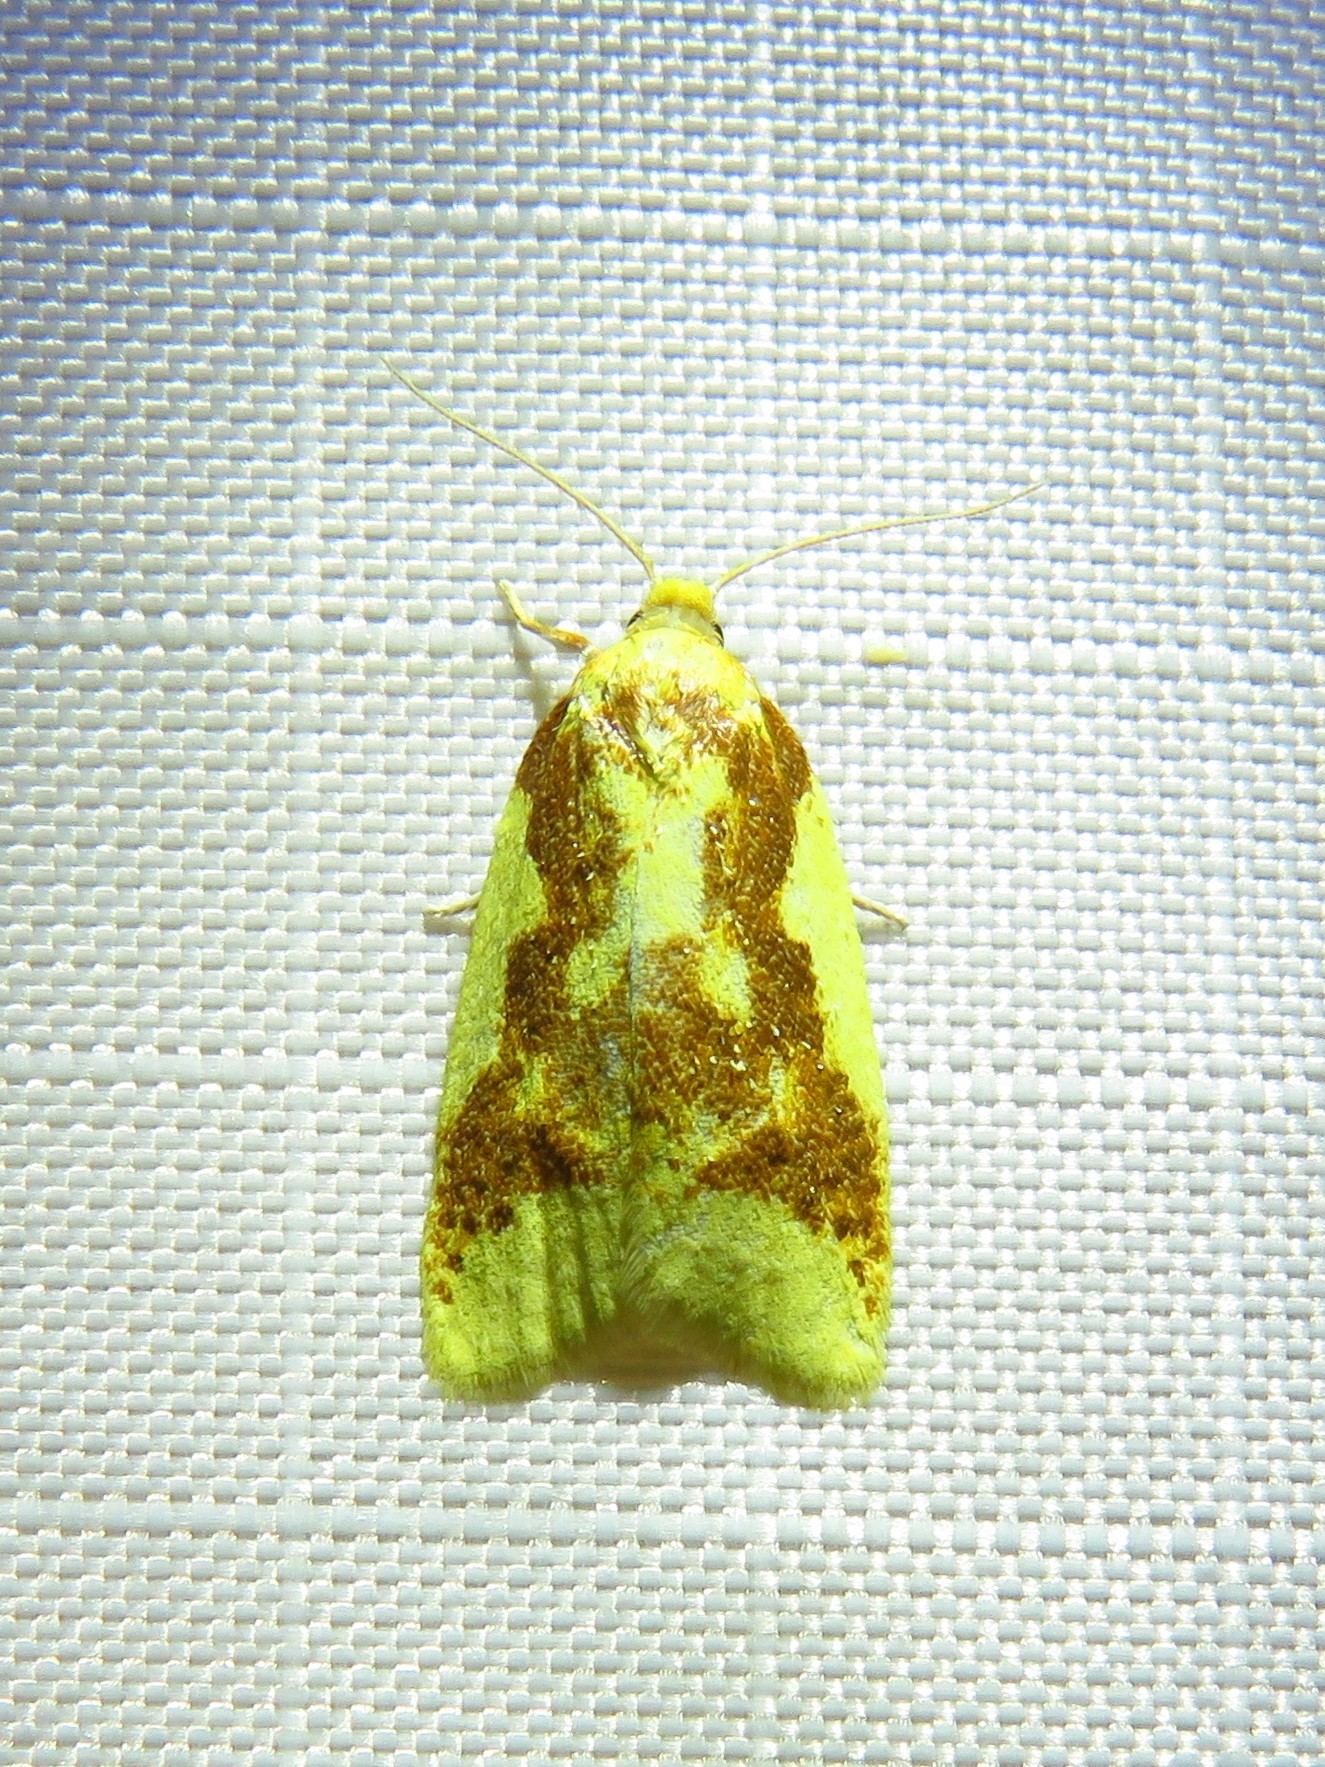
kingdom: Animalia
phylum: Arthropoda
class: Insecta
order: Lepidoptera
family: Tortricidae
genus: Sparganothis
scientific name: Sparganothis pulcherrimana
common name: Beautiful sparganothis
